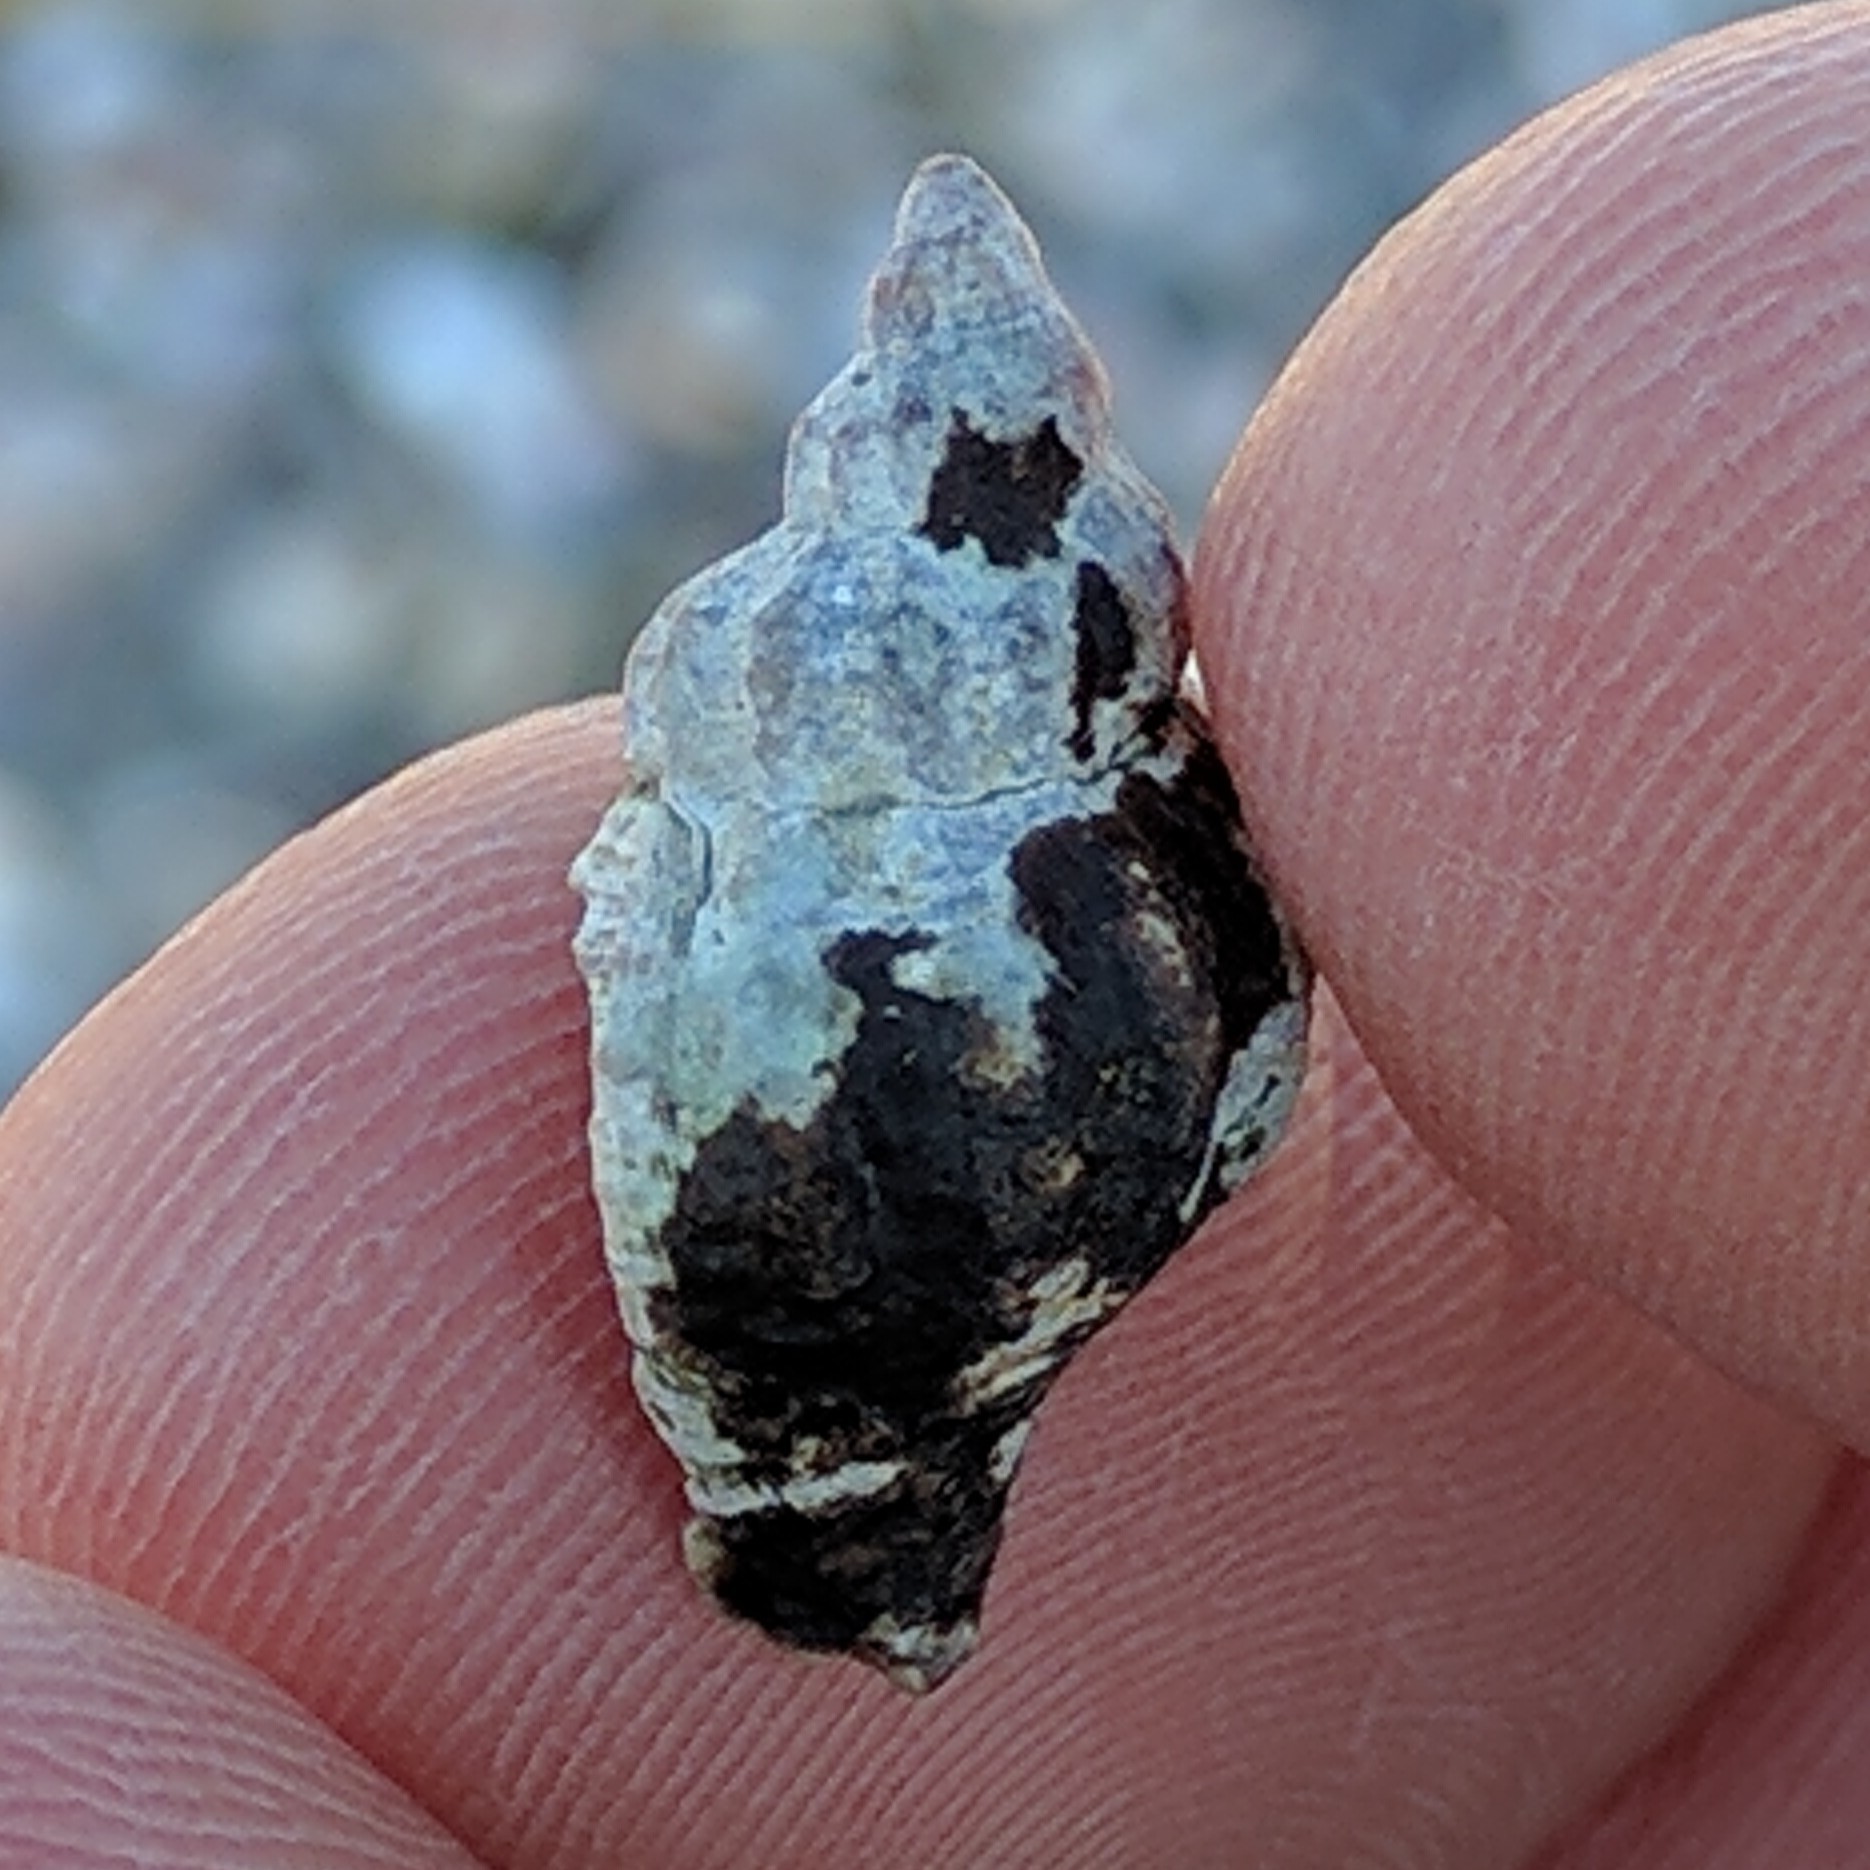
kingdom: Animalia
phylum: Mollusca
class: Gastropoda
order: Neogastropoda
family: Muricidae
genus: Urosalpinx
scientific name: Urosalpinx cinerea
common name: American sting winkle
